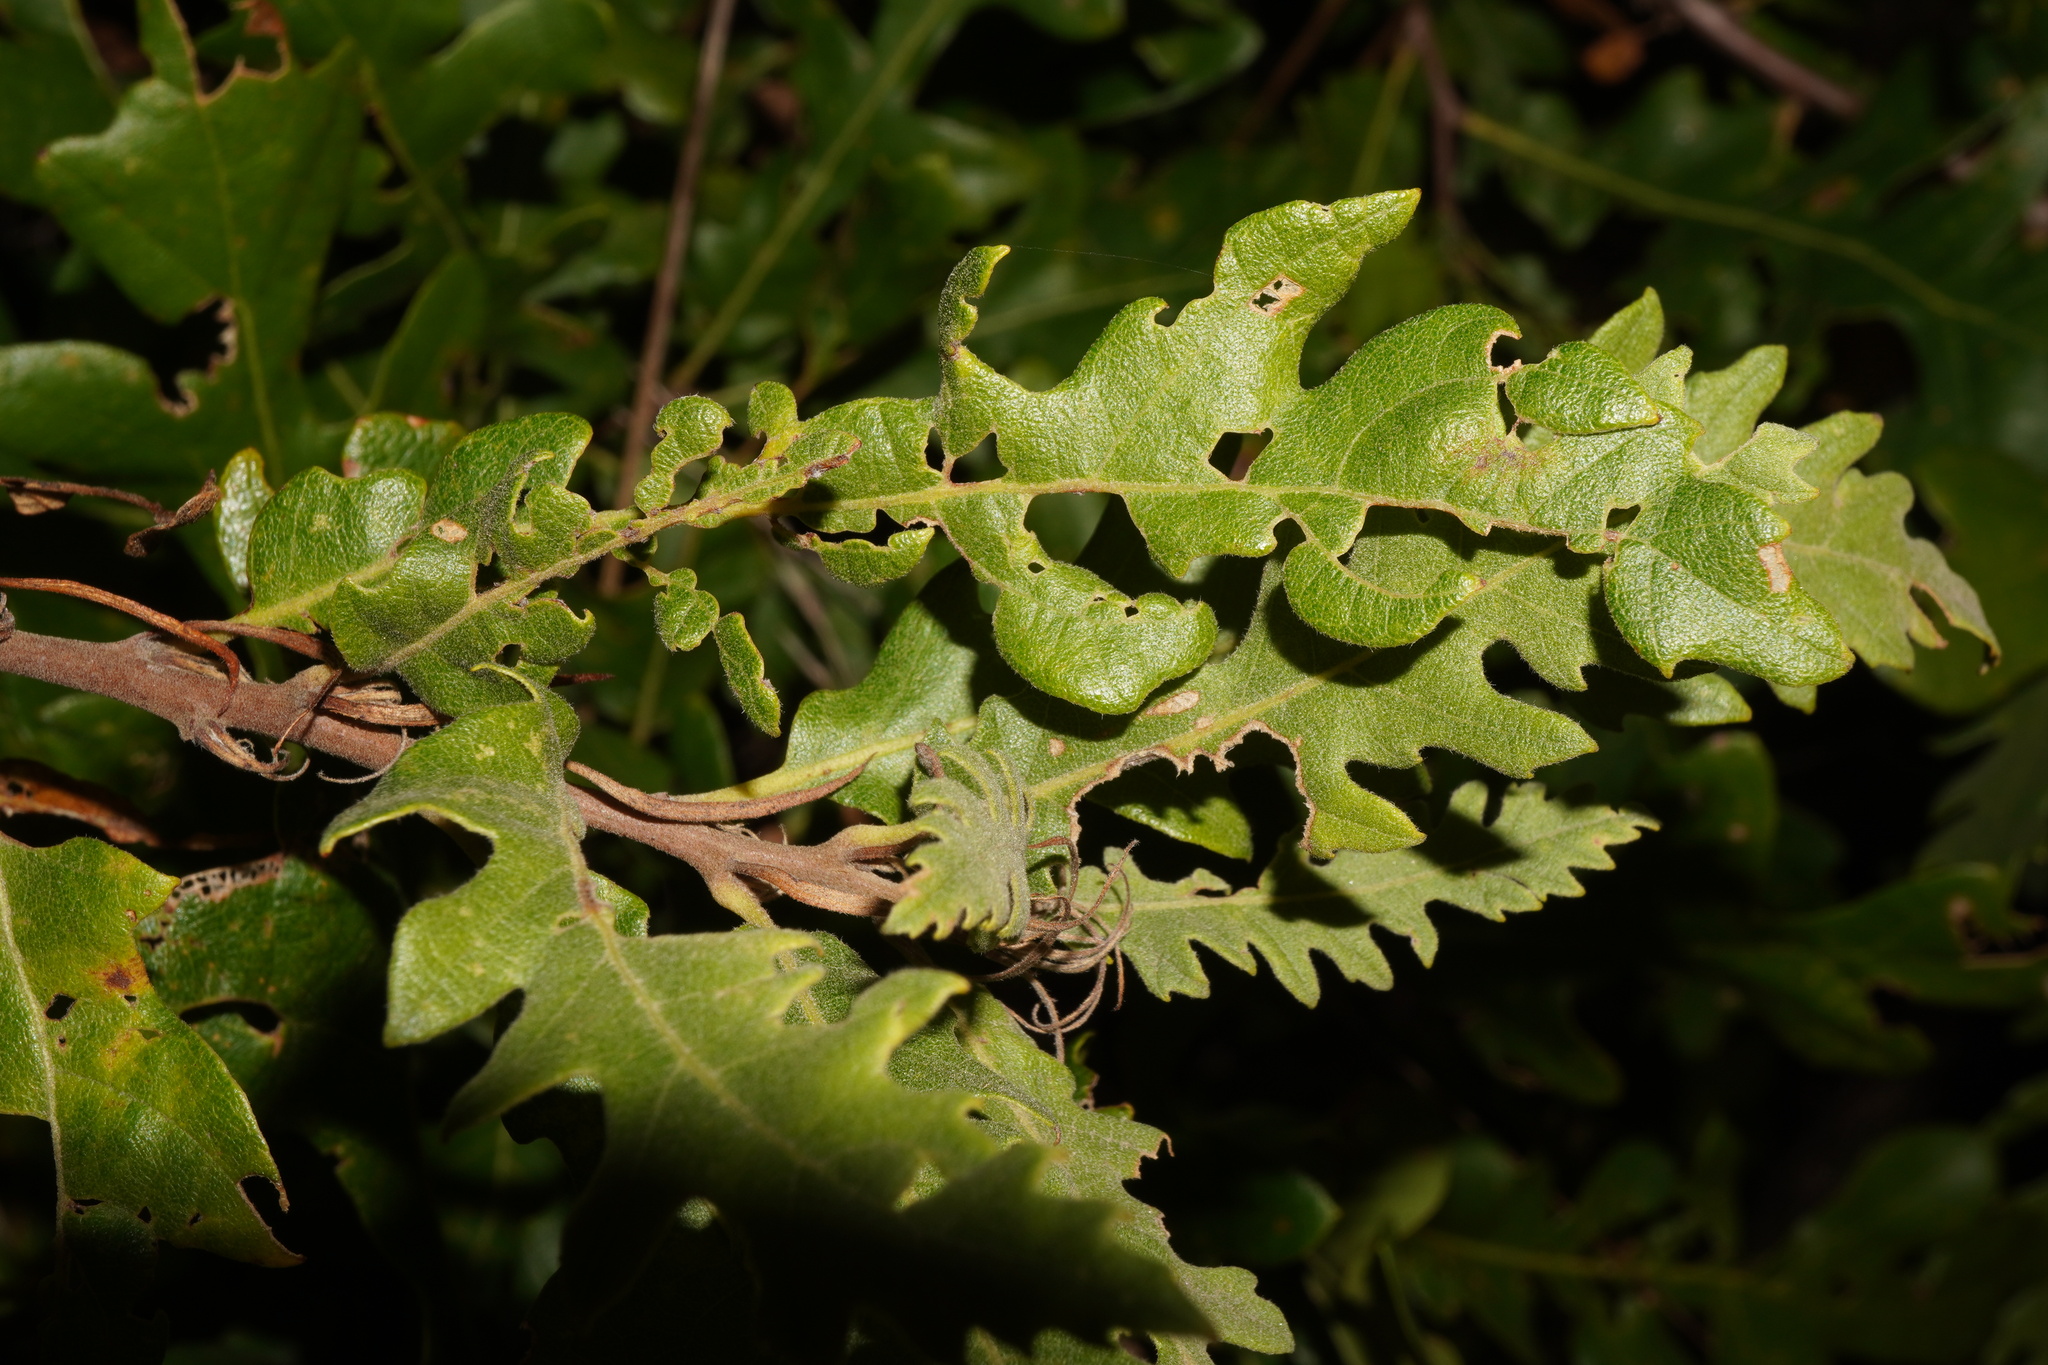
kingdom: Plantae
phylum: Tracheophyta
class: Magnoliopsida
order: Fagales
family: Fagaceae
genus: Quercus
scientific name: Quercus cerris
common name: Turkey oak
